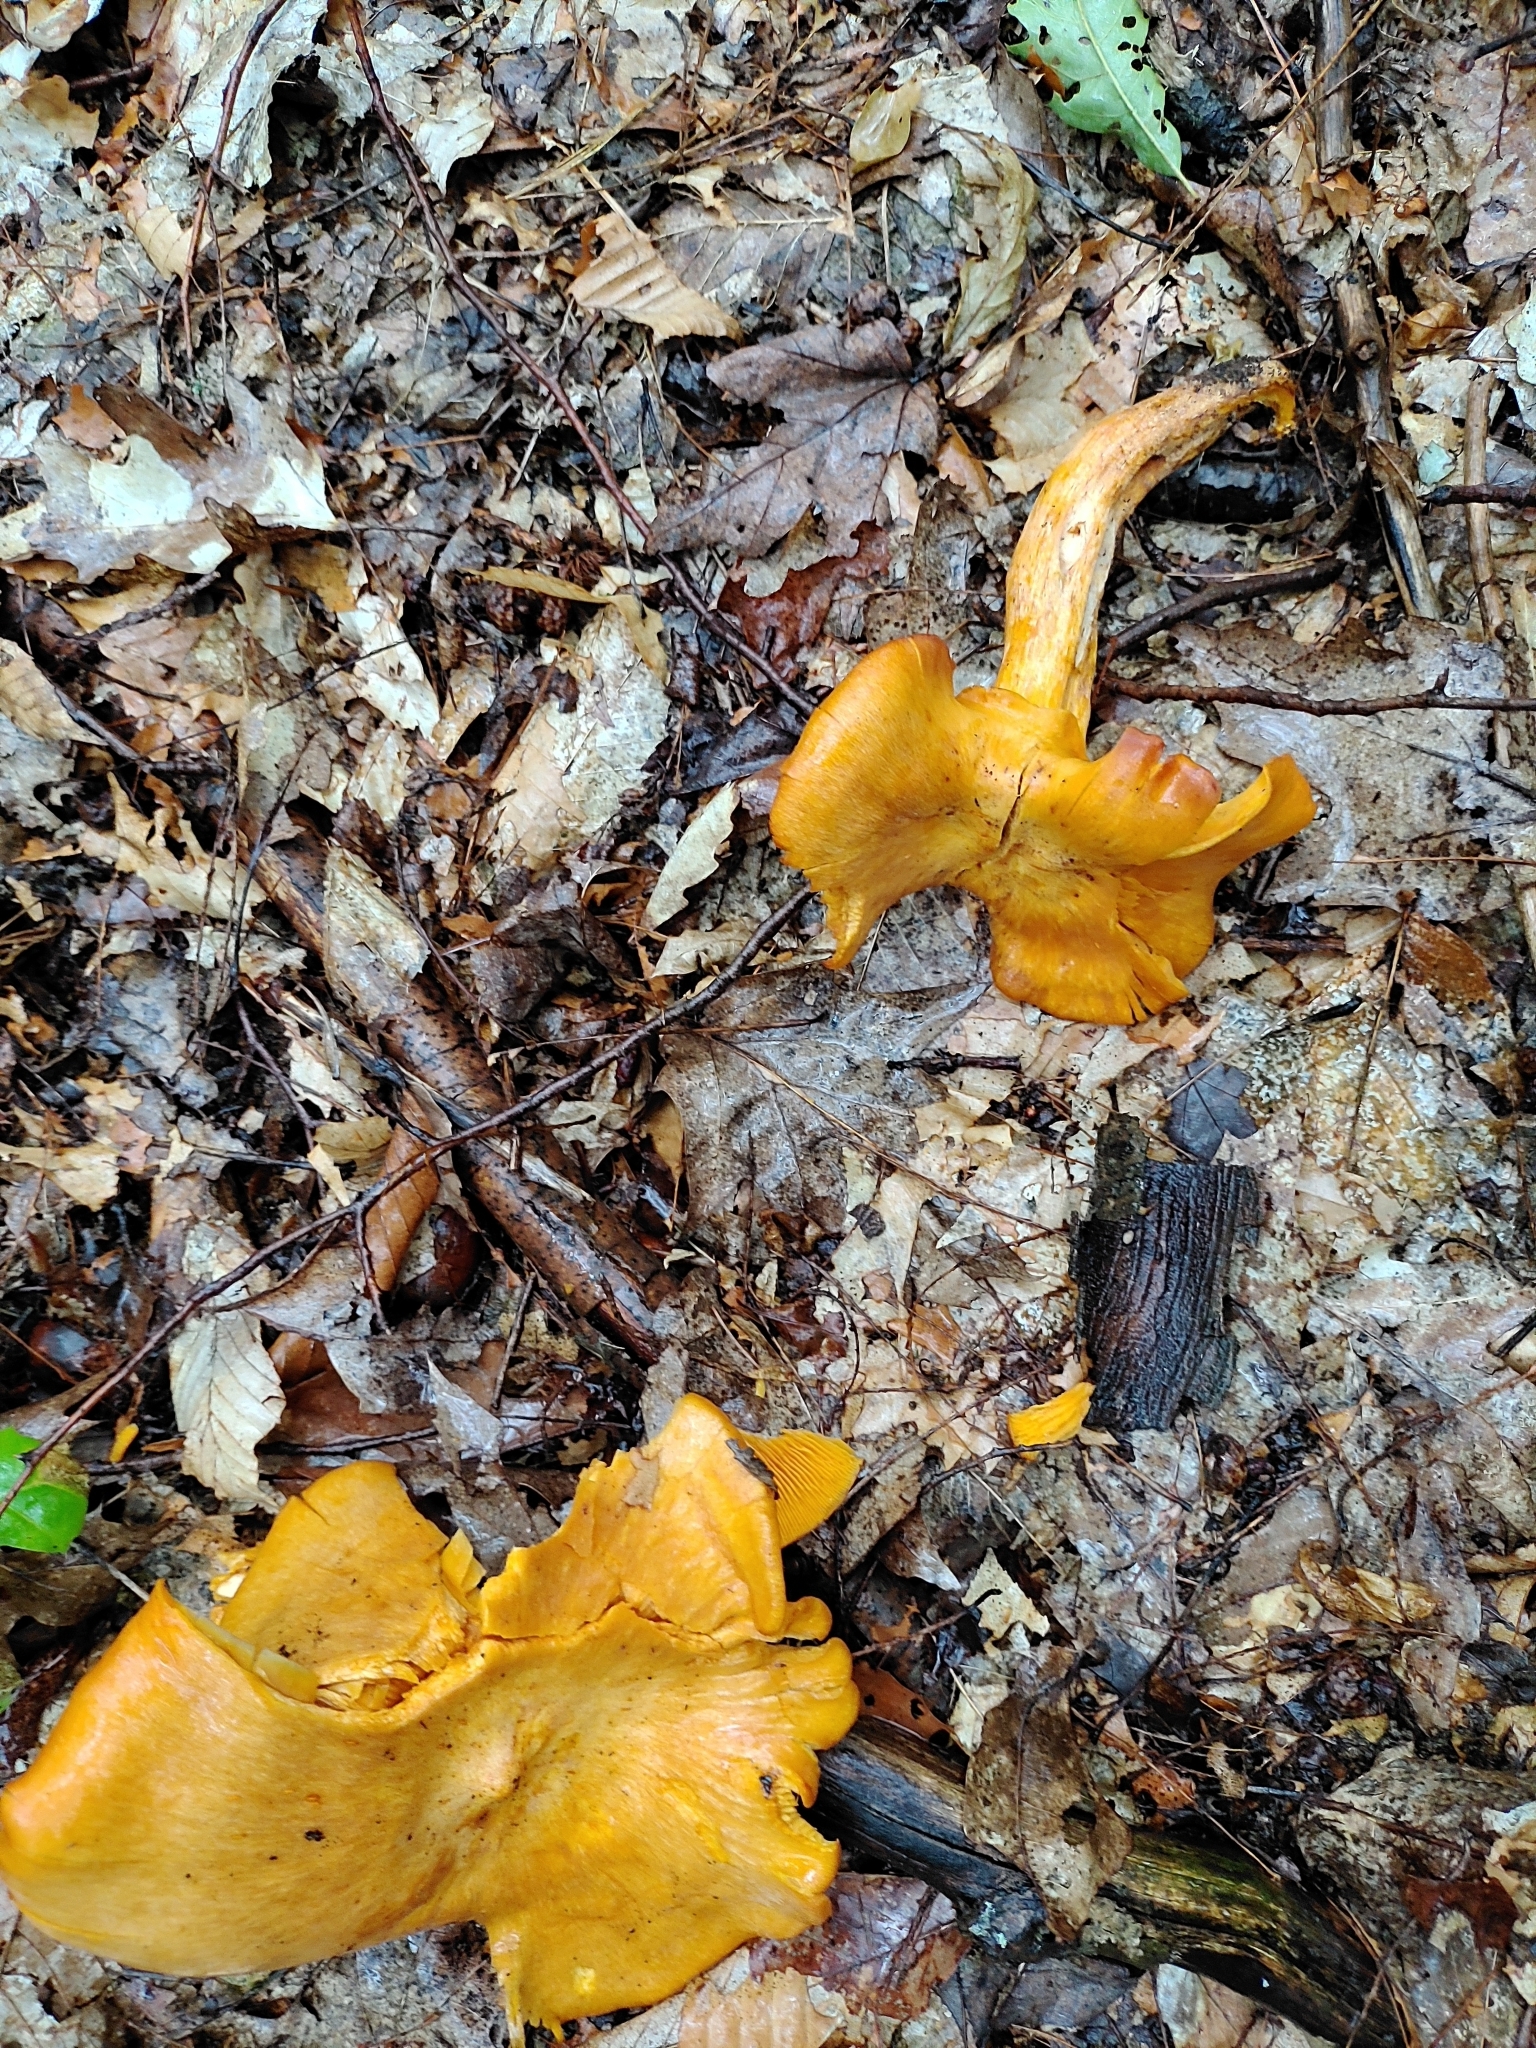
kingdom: Fungi
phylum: Basidiomycota
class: Agaricomycetes
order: Agaricales
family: Omphalotaceae
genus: Omphalotus
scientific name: Omphalotus illudens
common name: Jack o lantern
